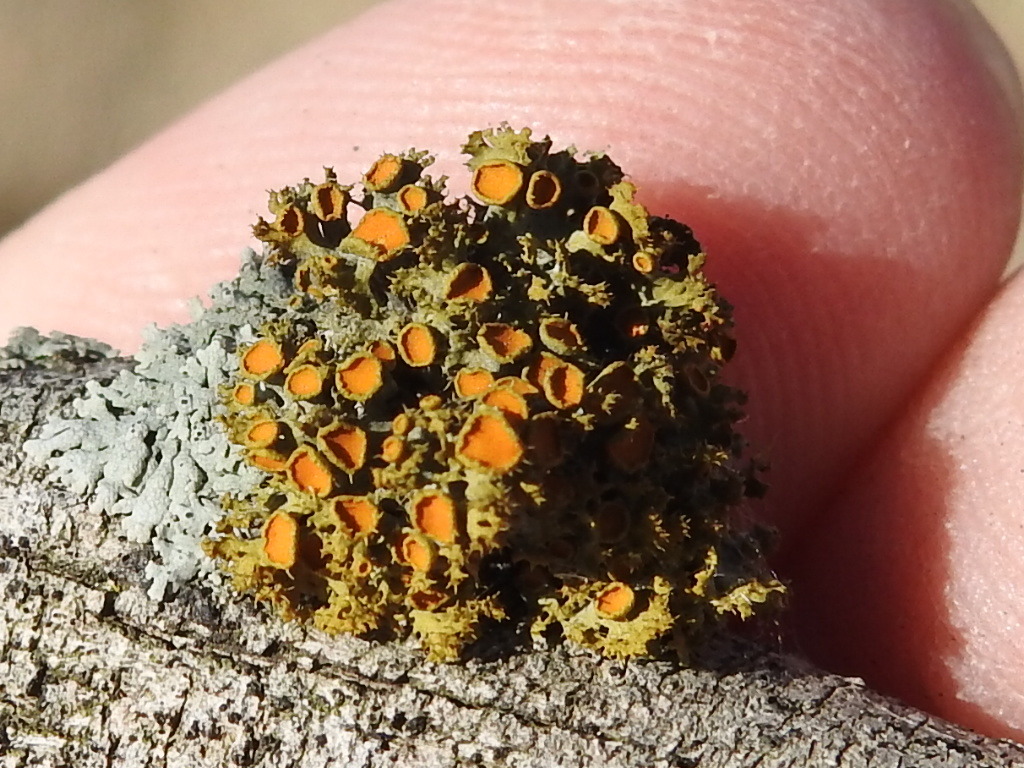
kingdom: Fungi
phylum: Ascomycota
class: Lecanoromycetes
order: Teloschistales
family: Teloschistaceae
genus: Niorma
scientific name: Niorma chrysophthalma
